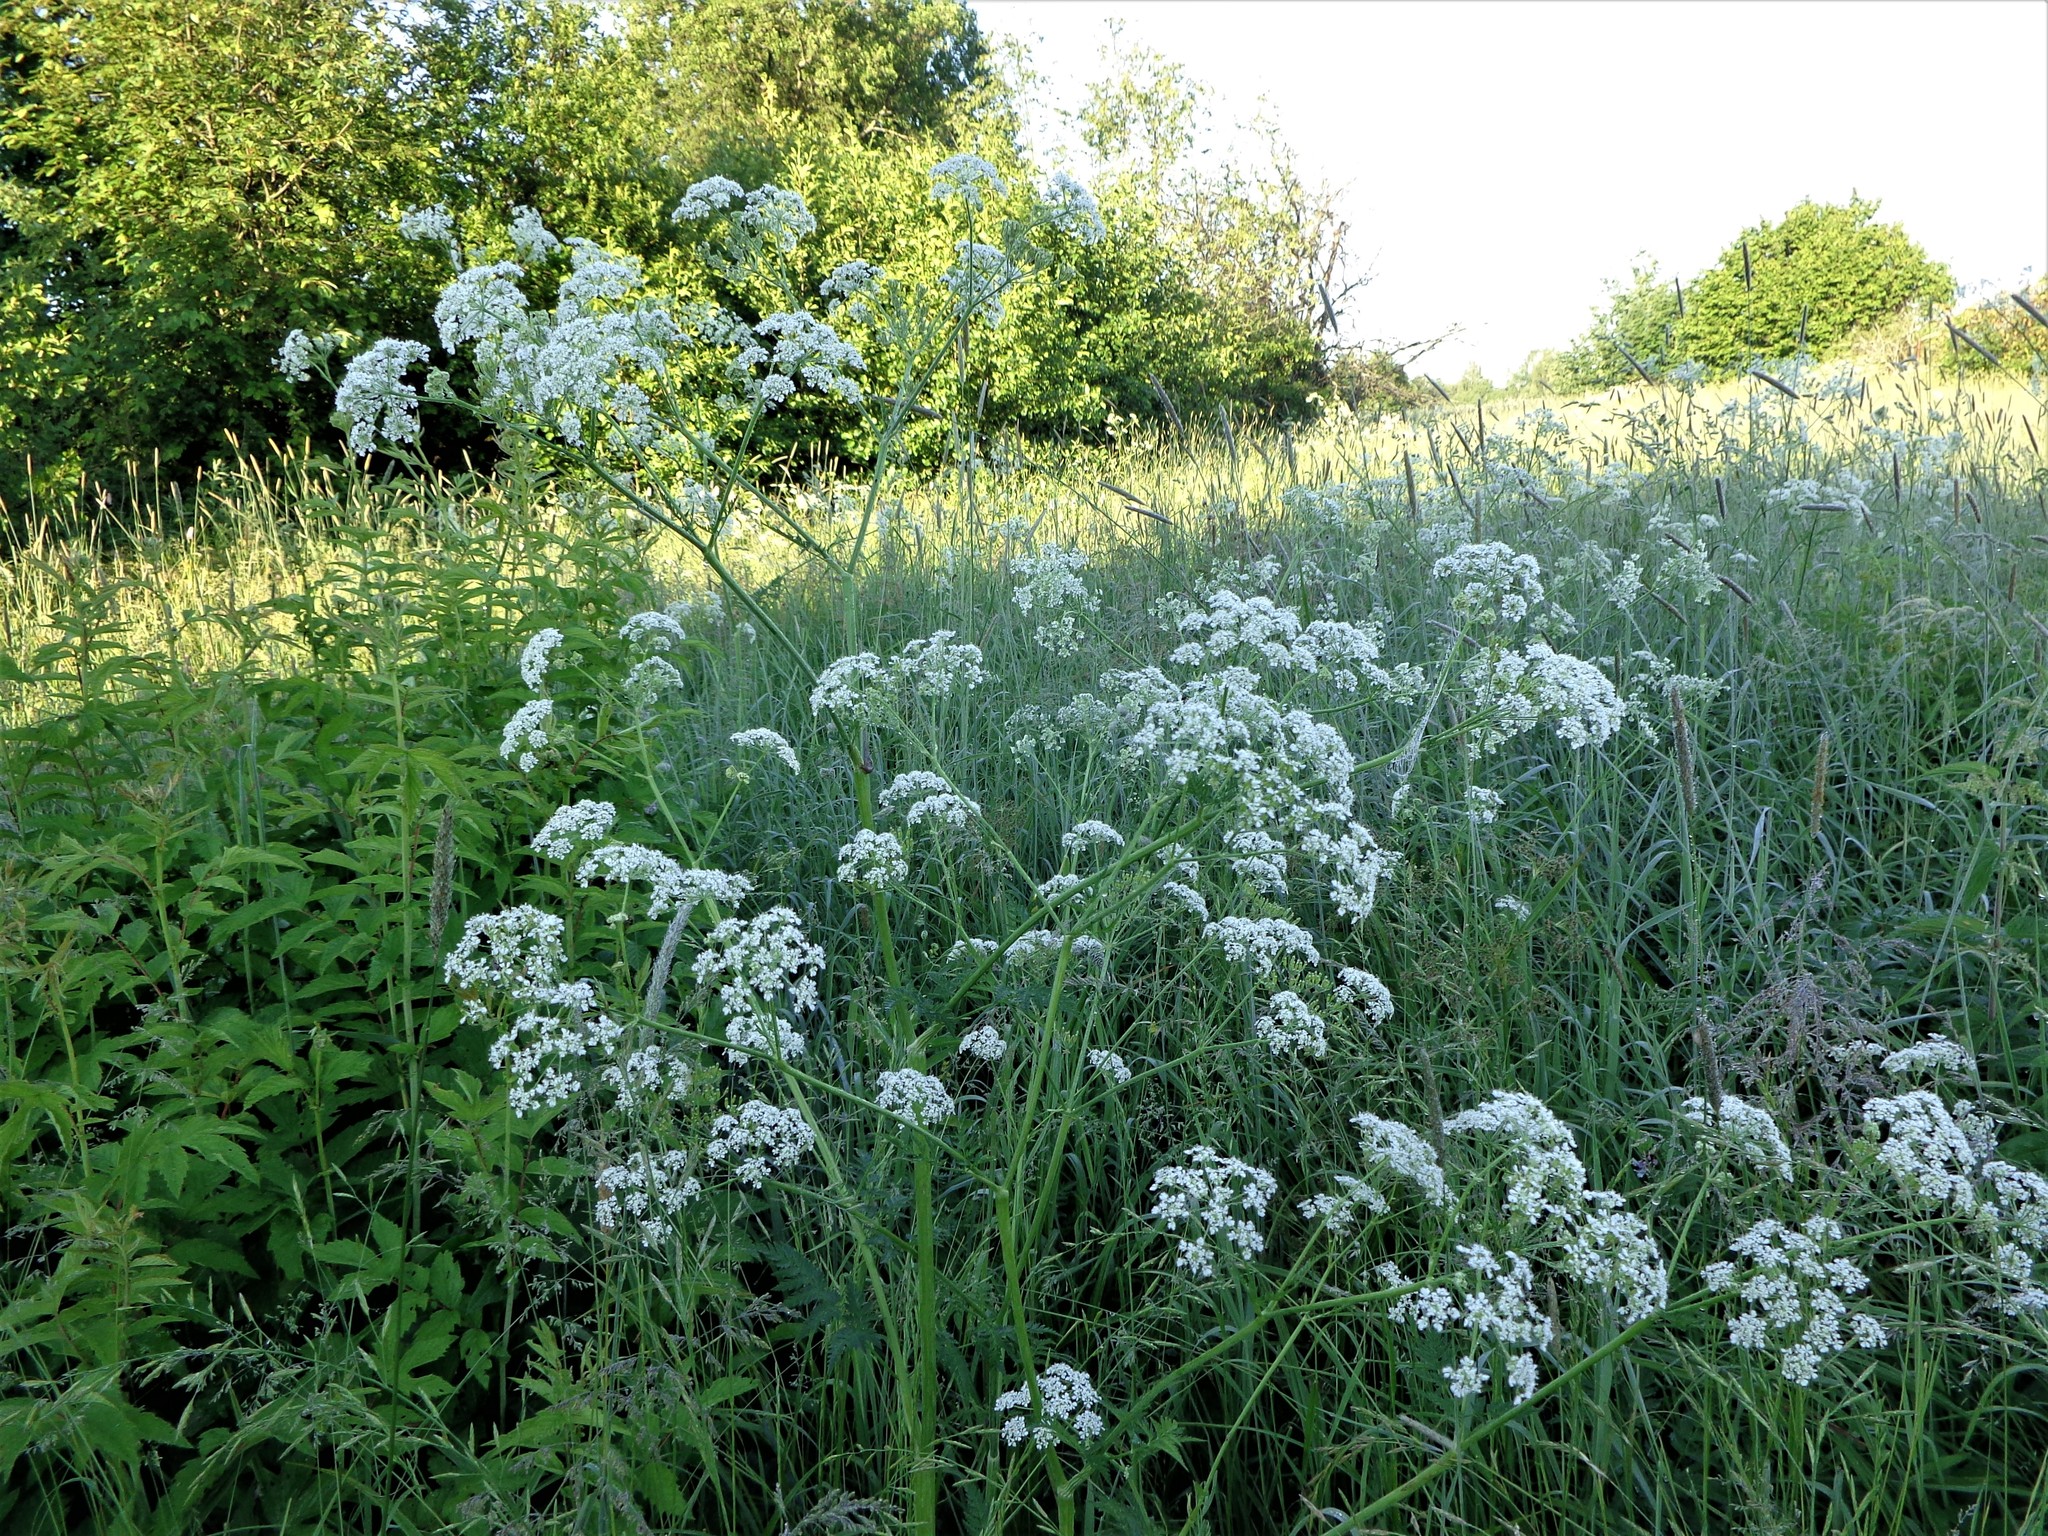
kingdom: Plantae
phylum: Tracheophyta
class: Magnoliopsida
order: Apiales
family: Apiaceae
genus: Anthriscus
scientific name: Anthriscus sylvestris
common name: Cow parsley
